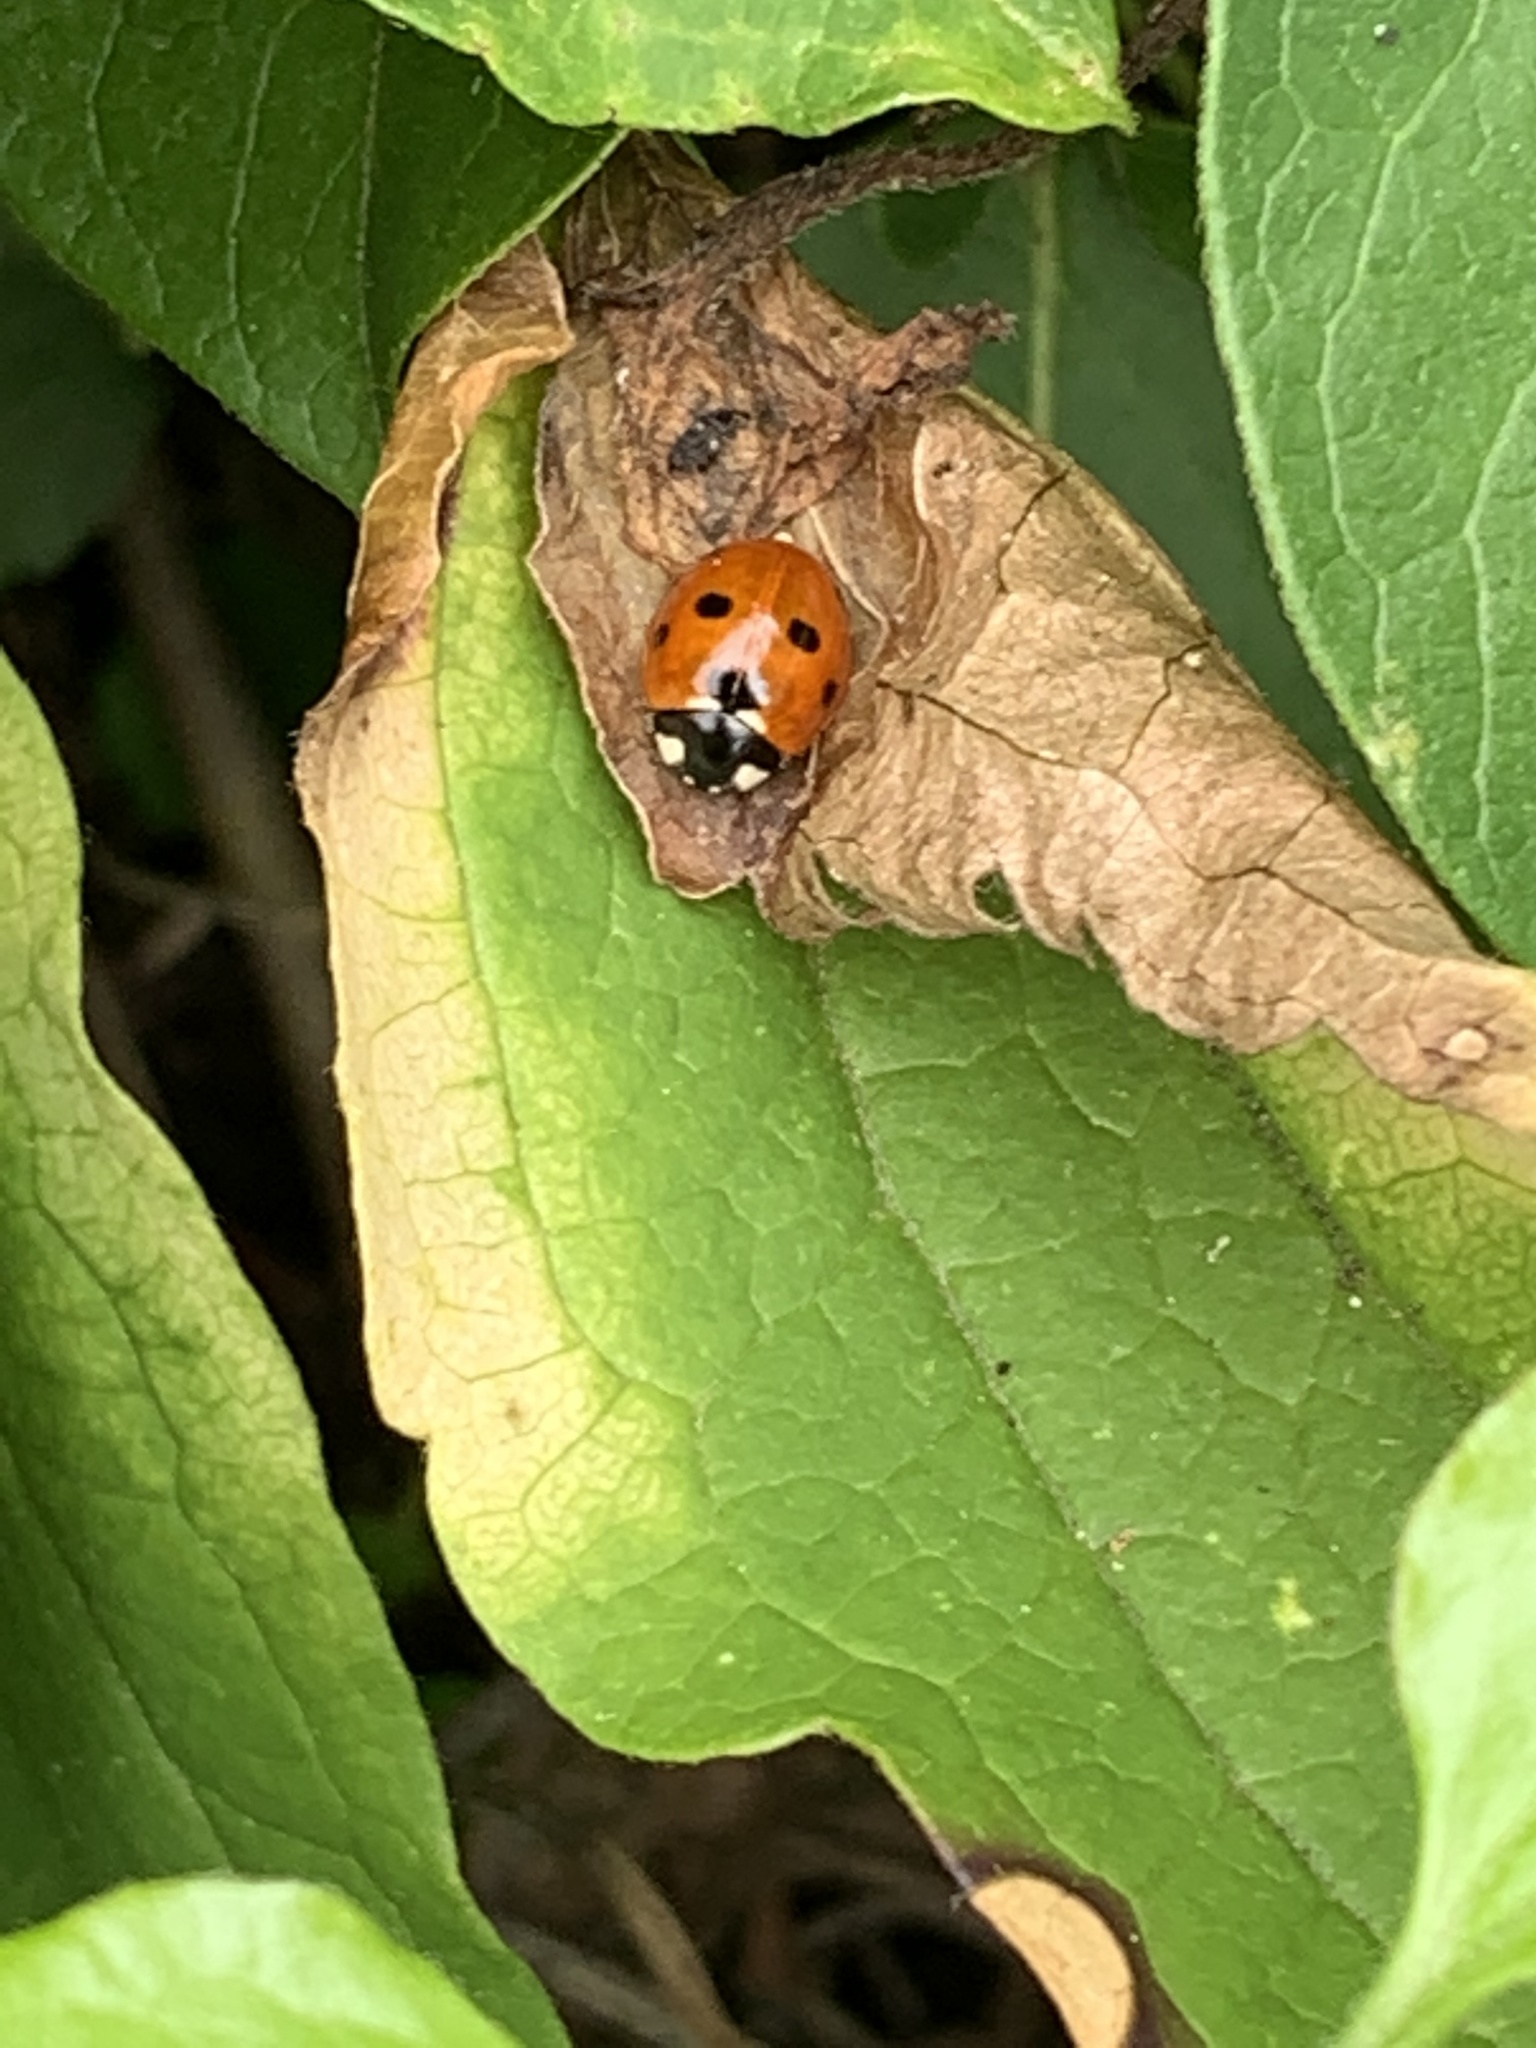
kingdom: Animalia
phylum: Arthropoda
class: Insecta
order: Coleoptera
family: Coccinellidae
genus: Coccinella
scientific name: Coccinella septempunctata
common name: Sevenspotted lady beetle
